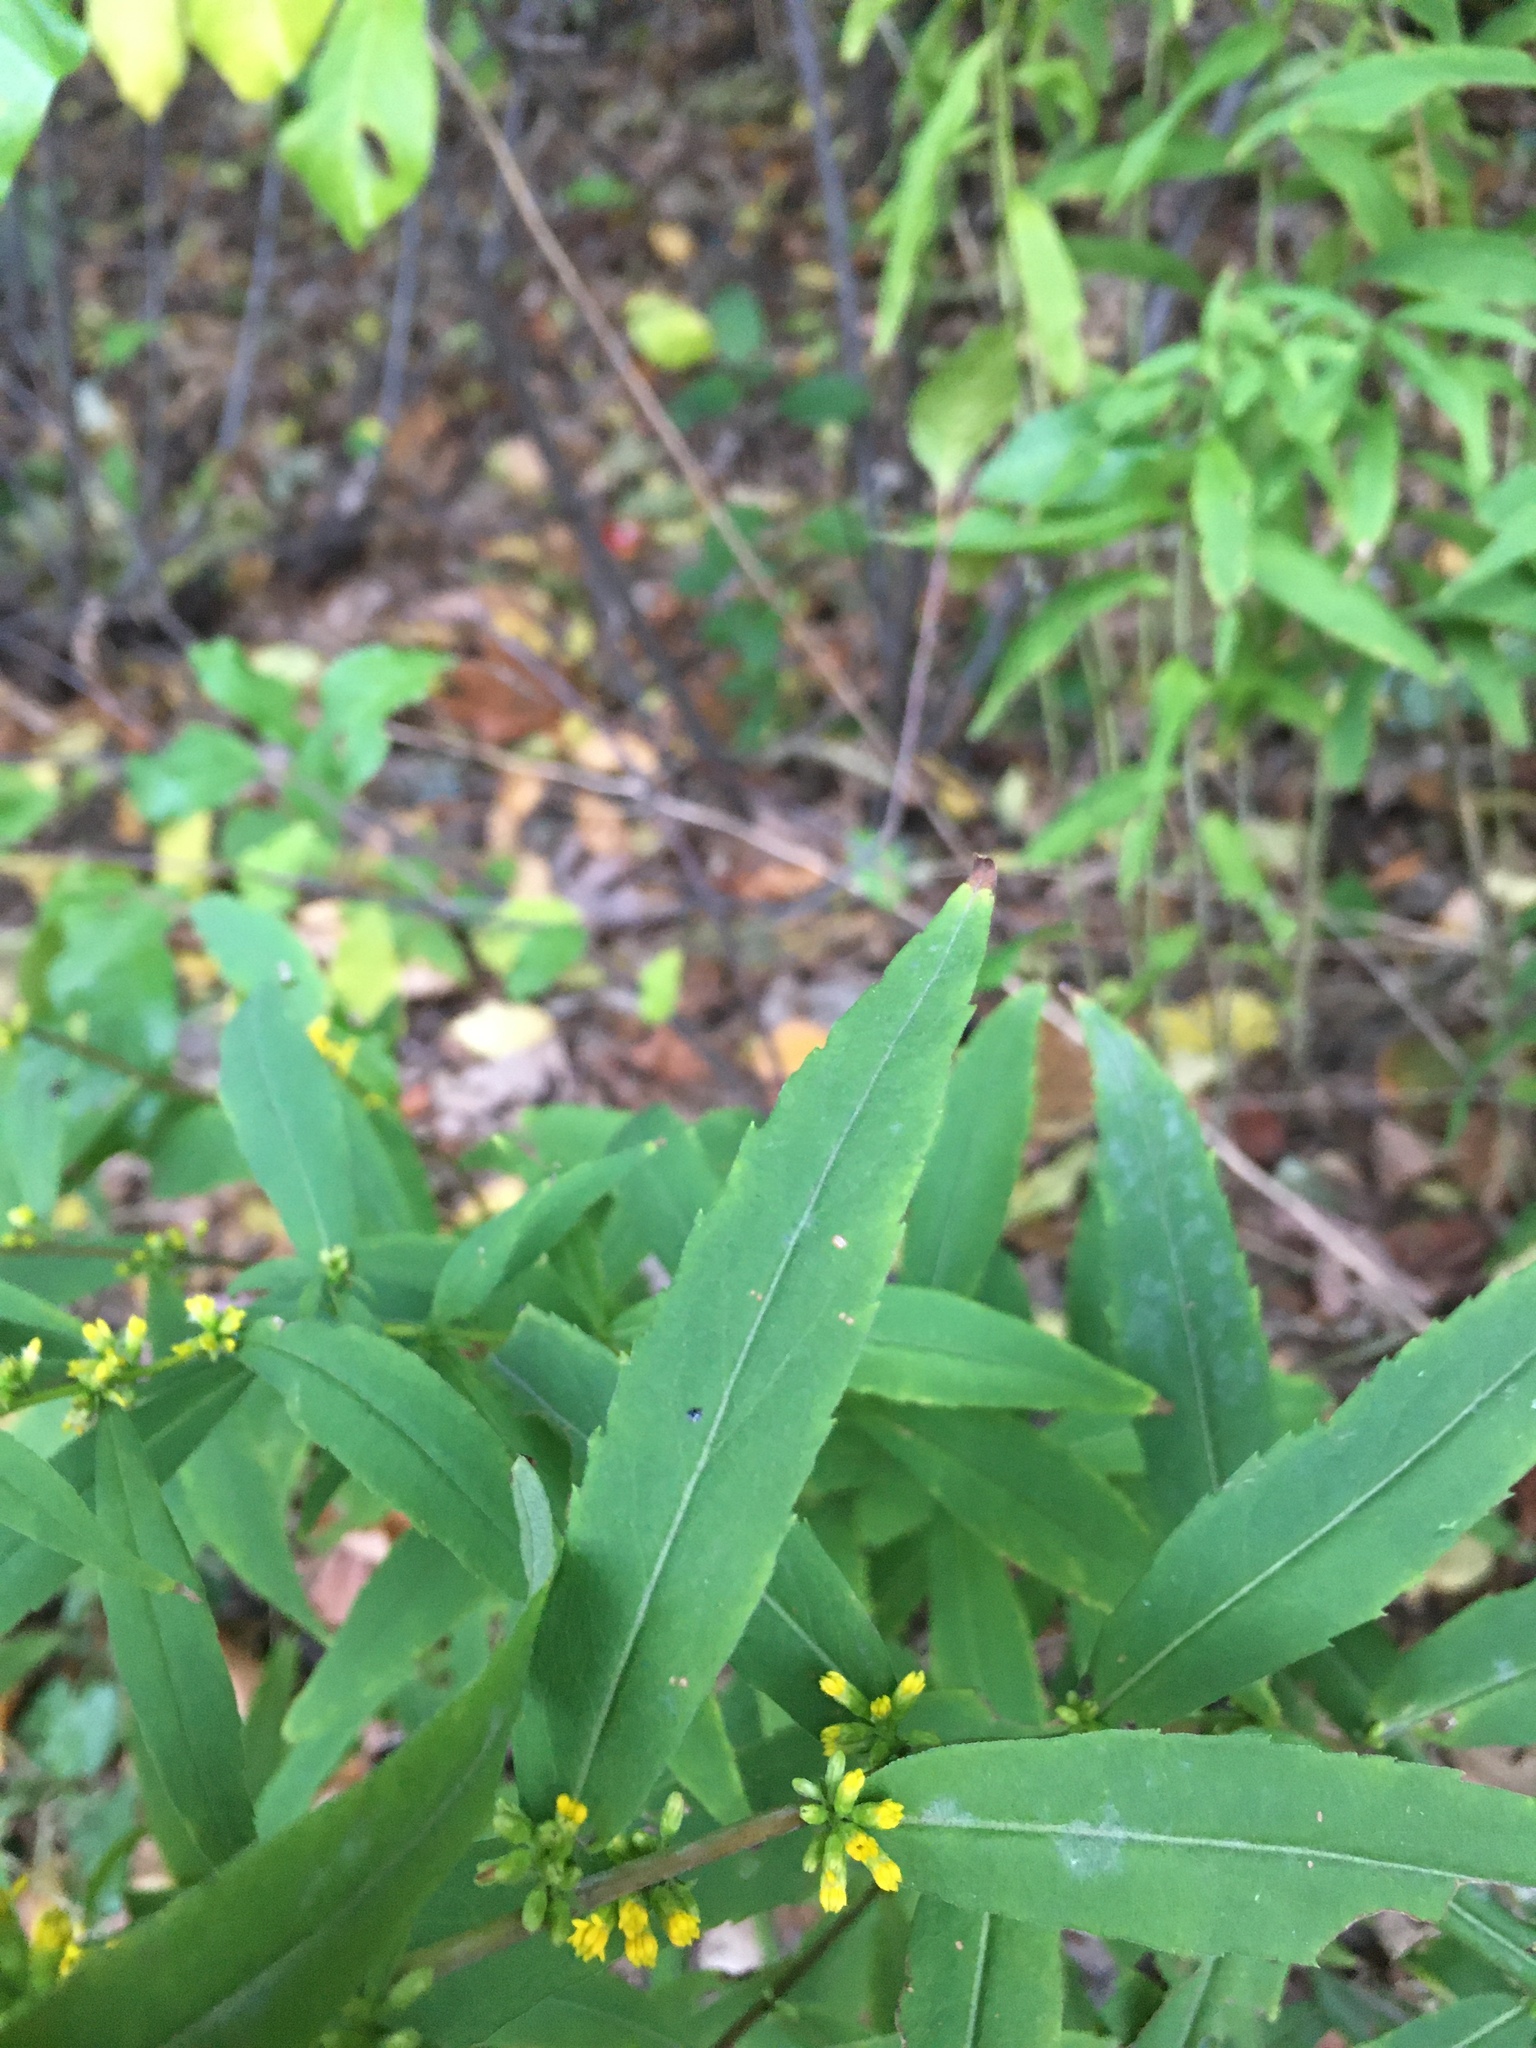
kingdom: Plantae
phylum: Tracheophyta
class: Magnoliopsida
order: Asterales
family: Asteraceae
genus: Solidago
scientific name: Solidago caesia
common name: Woodland goldenrod
